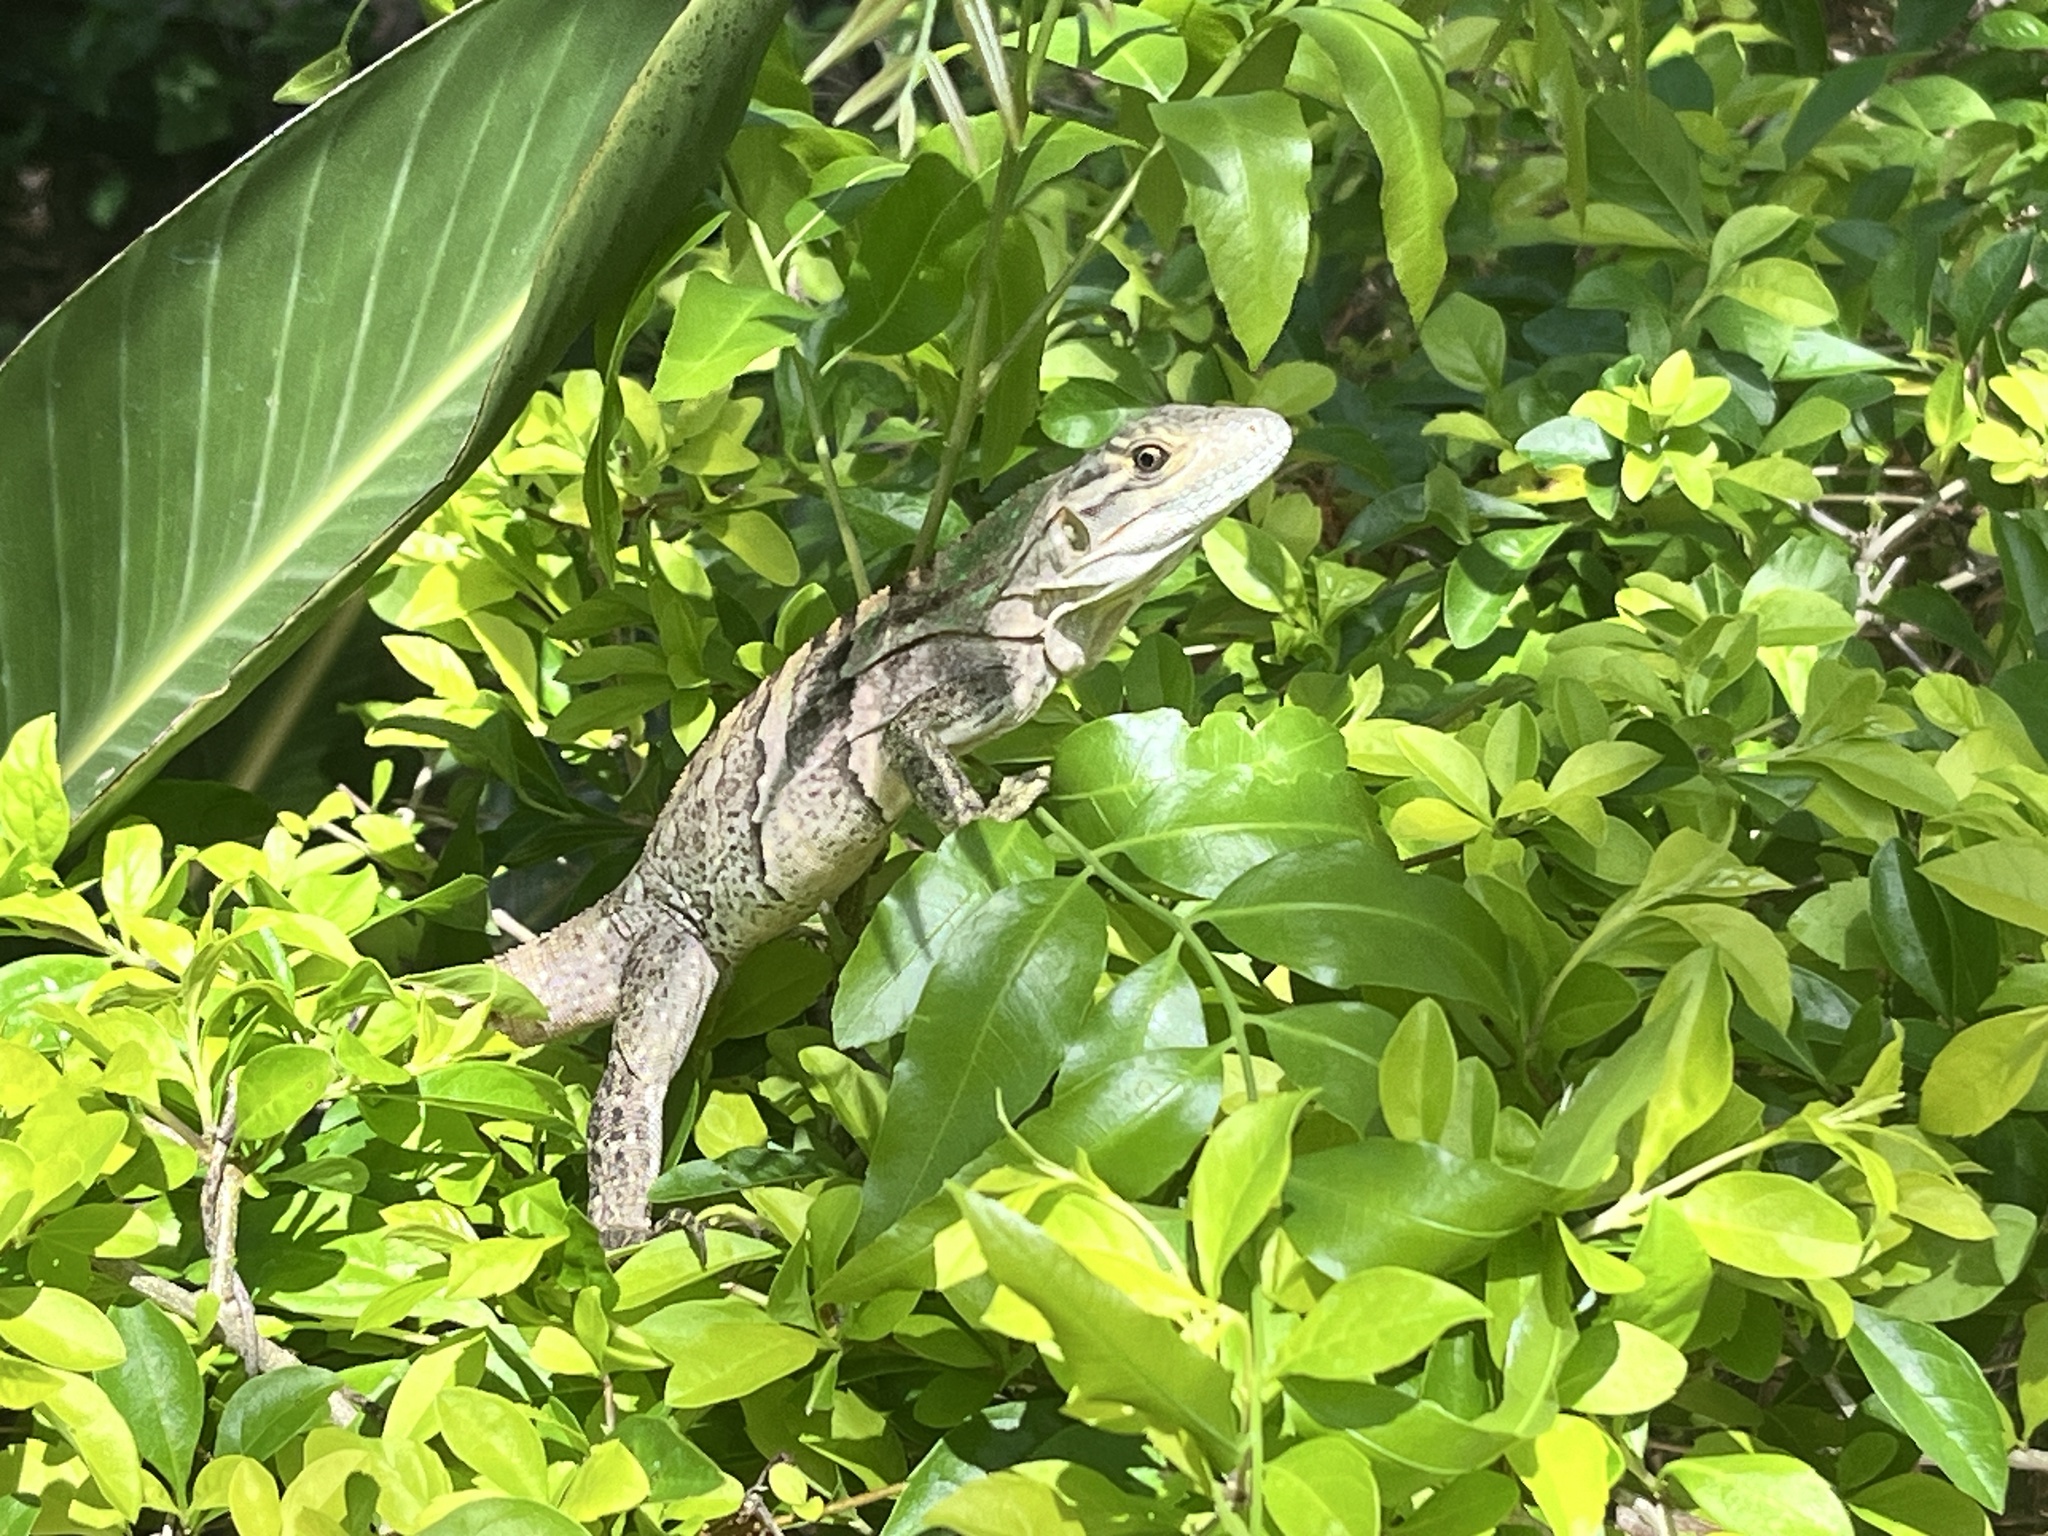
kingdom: Animalia
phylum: Chordata
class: Squamata
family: Iguanidae
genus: Ctenosaura
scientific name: Ctenosaura similis
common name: Black spiny-tailed iguana
